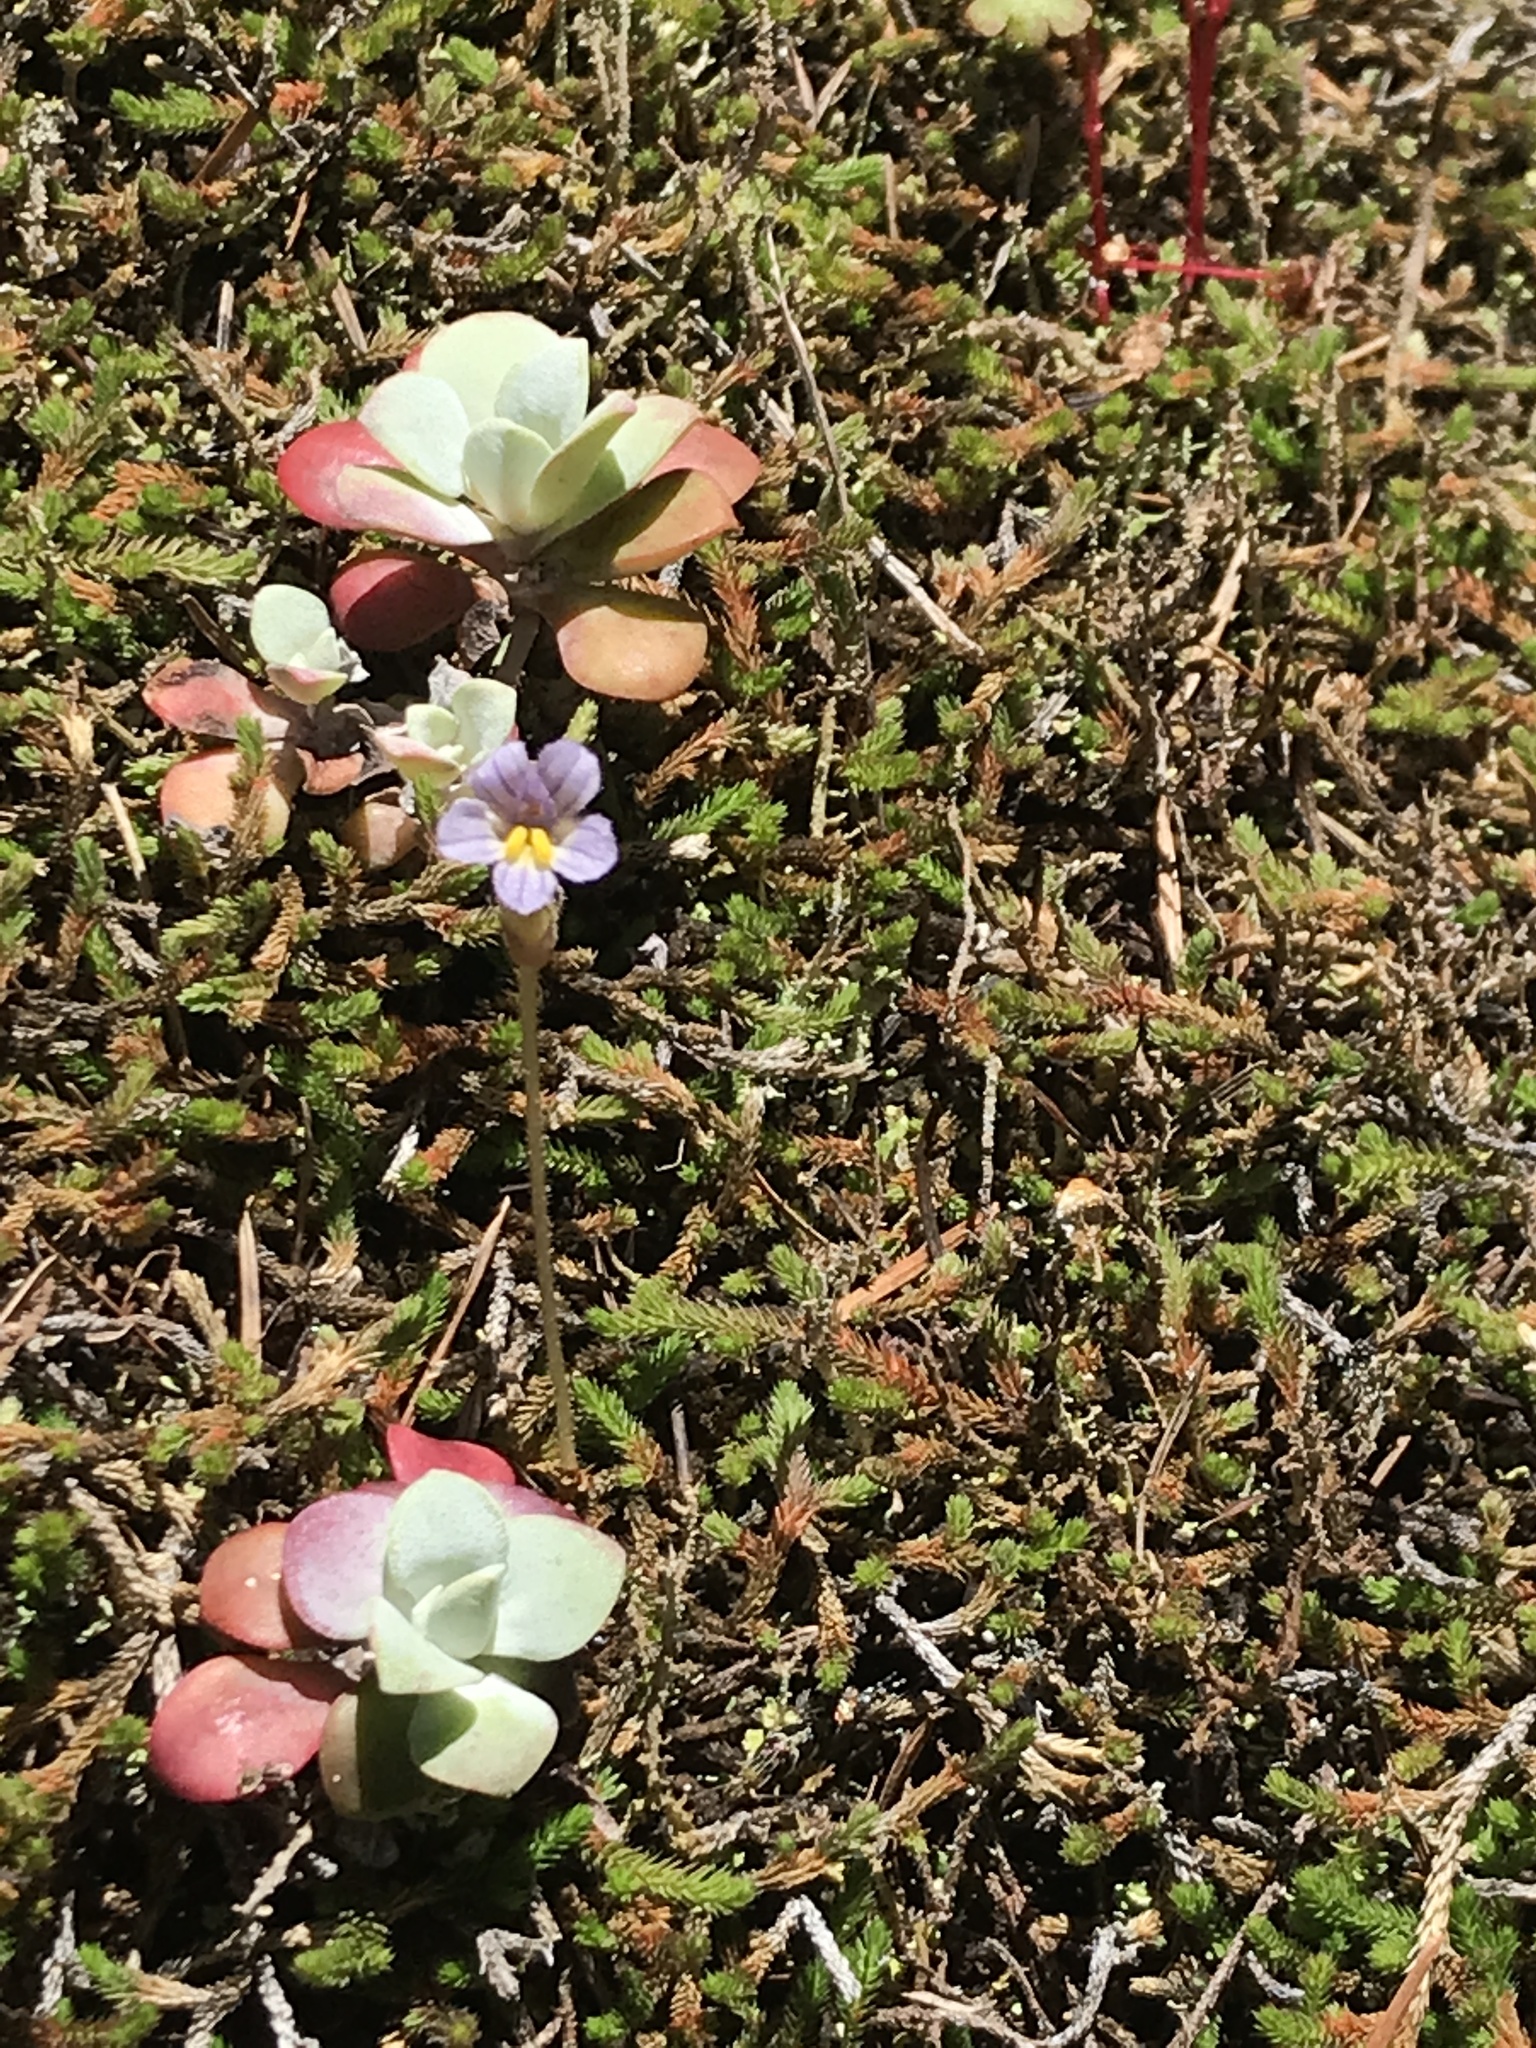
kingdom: Plantae
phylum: Tracheophyta
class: Magnoliopsida
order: Lamiales
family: Orobanchaceae
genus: Aphyllon
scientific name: Aphyllon uniflorum
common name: One-flowered broomrape
